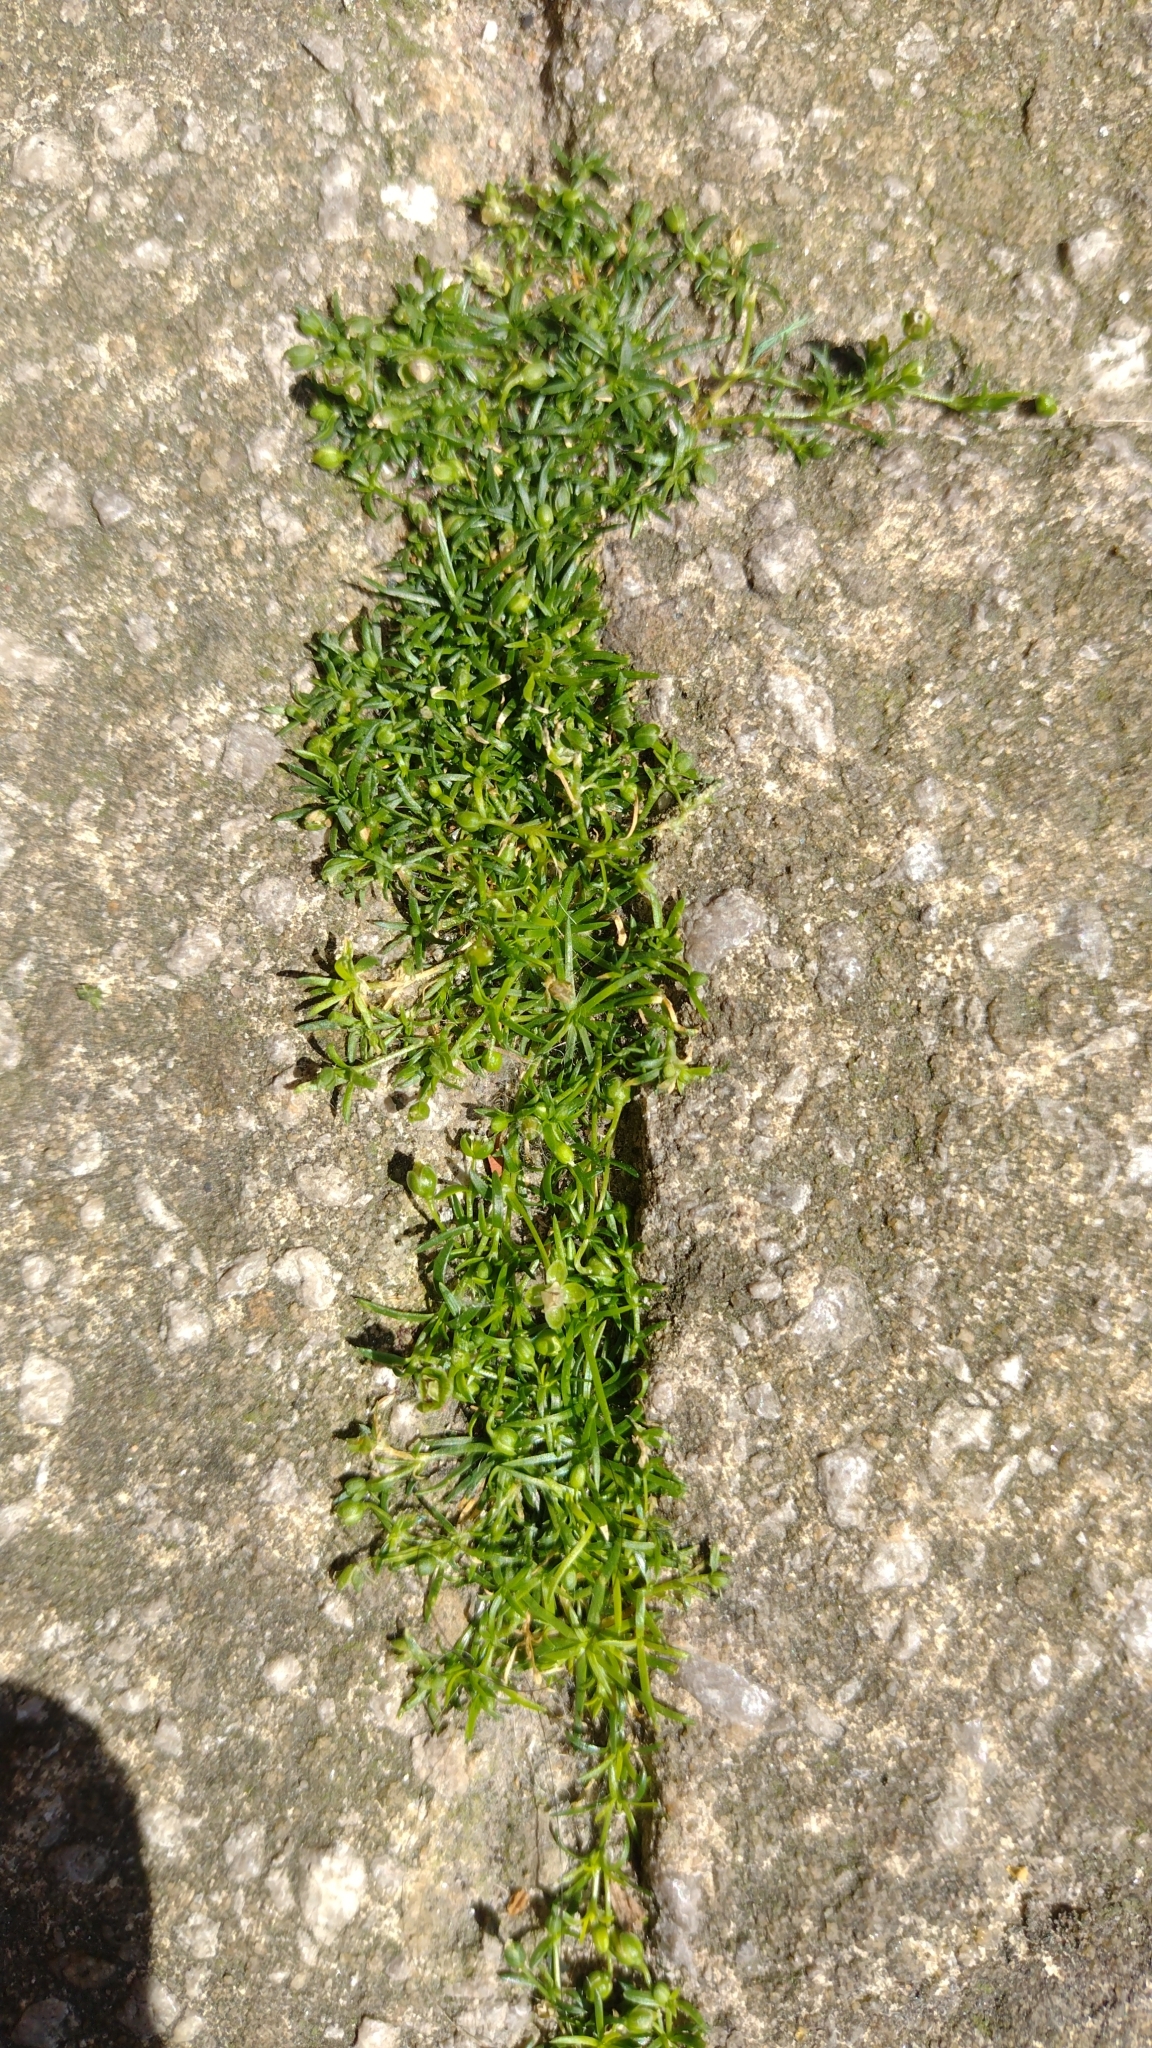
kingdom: Plantae
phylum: Tracheophyta
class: Magnoliopsida
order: Caryophyllales
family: Caryophyllaceae
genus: Sagina
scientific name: Sagina procumbens
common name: Procumbent pearlwort
